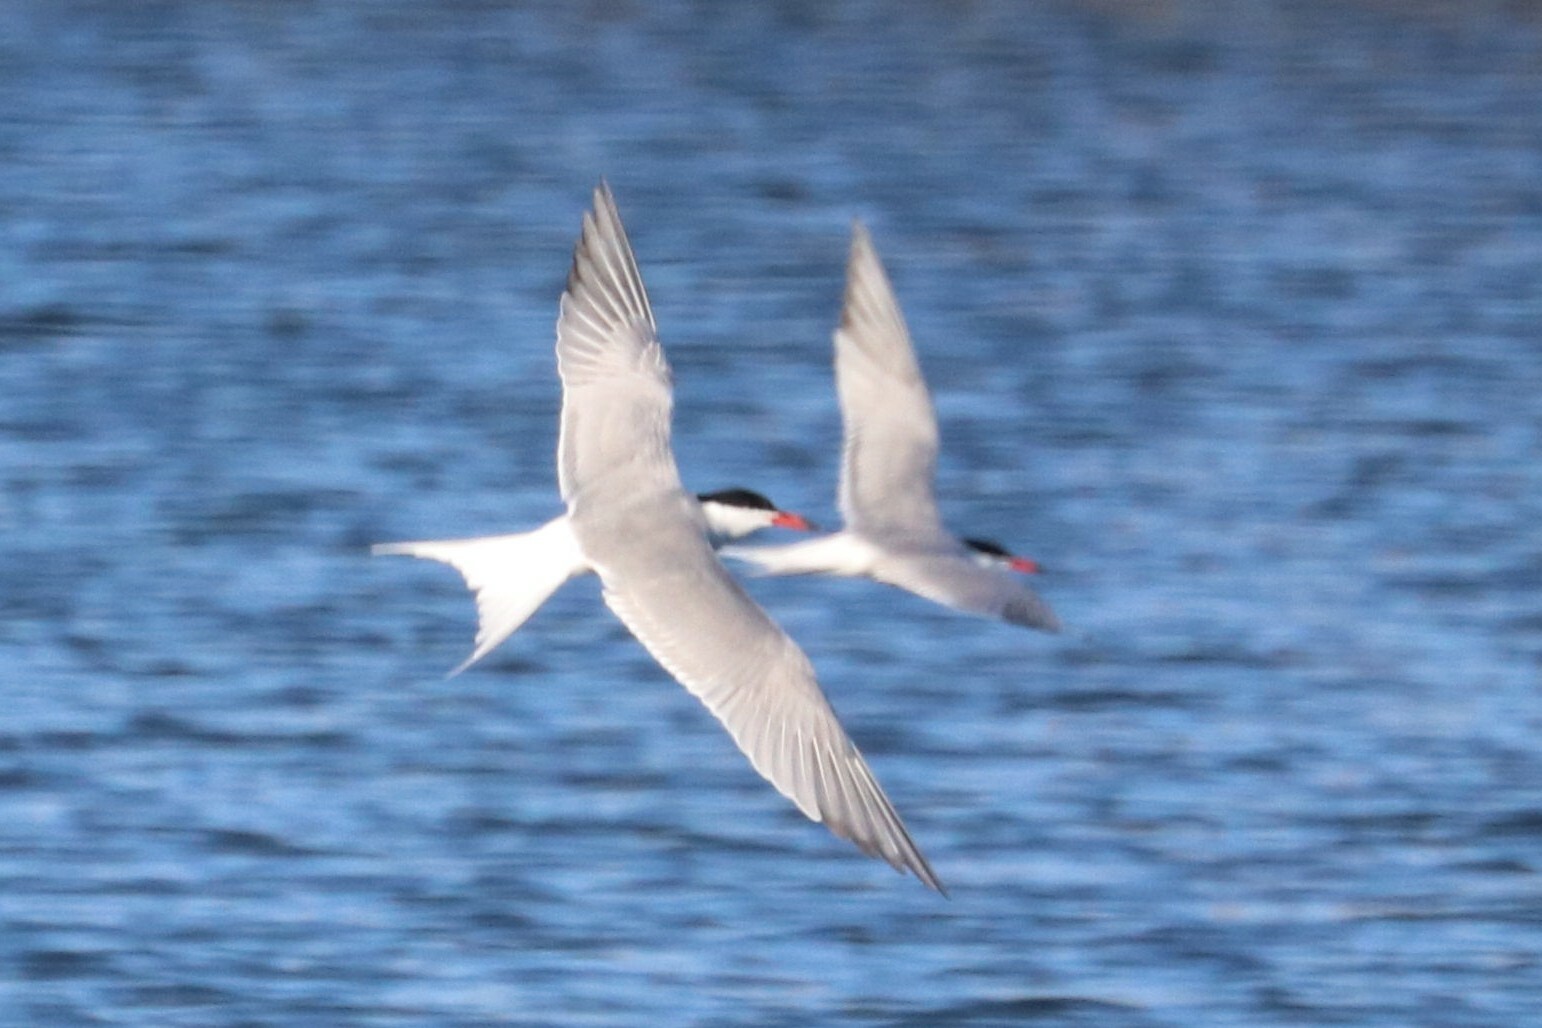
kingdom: Animalia
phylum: Chordata
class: Aves
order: Charadriiformes
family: Laridae
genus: Sterna
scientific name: Sterna hirundo
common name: Common tern
